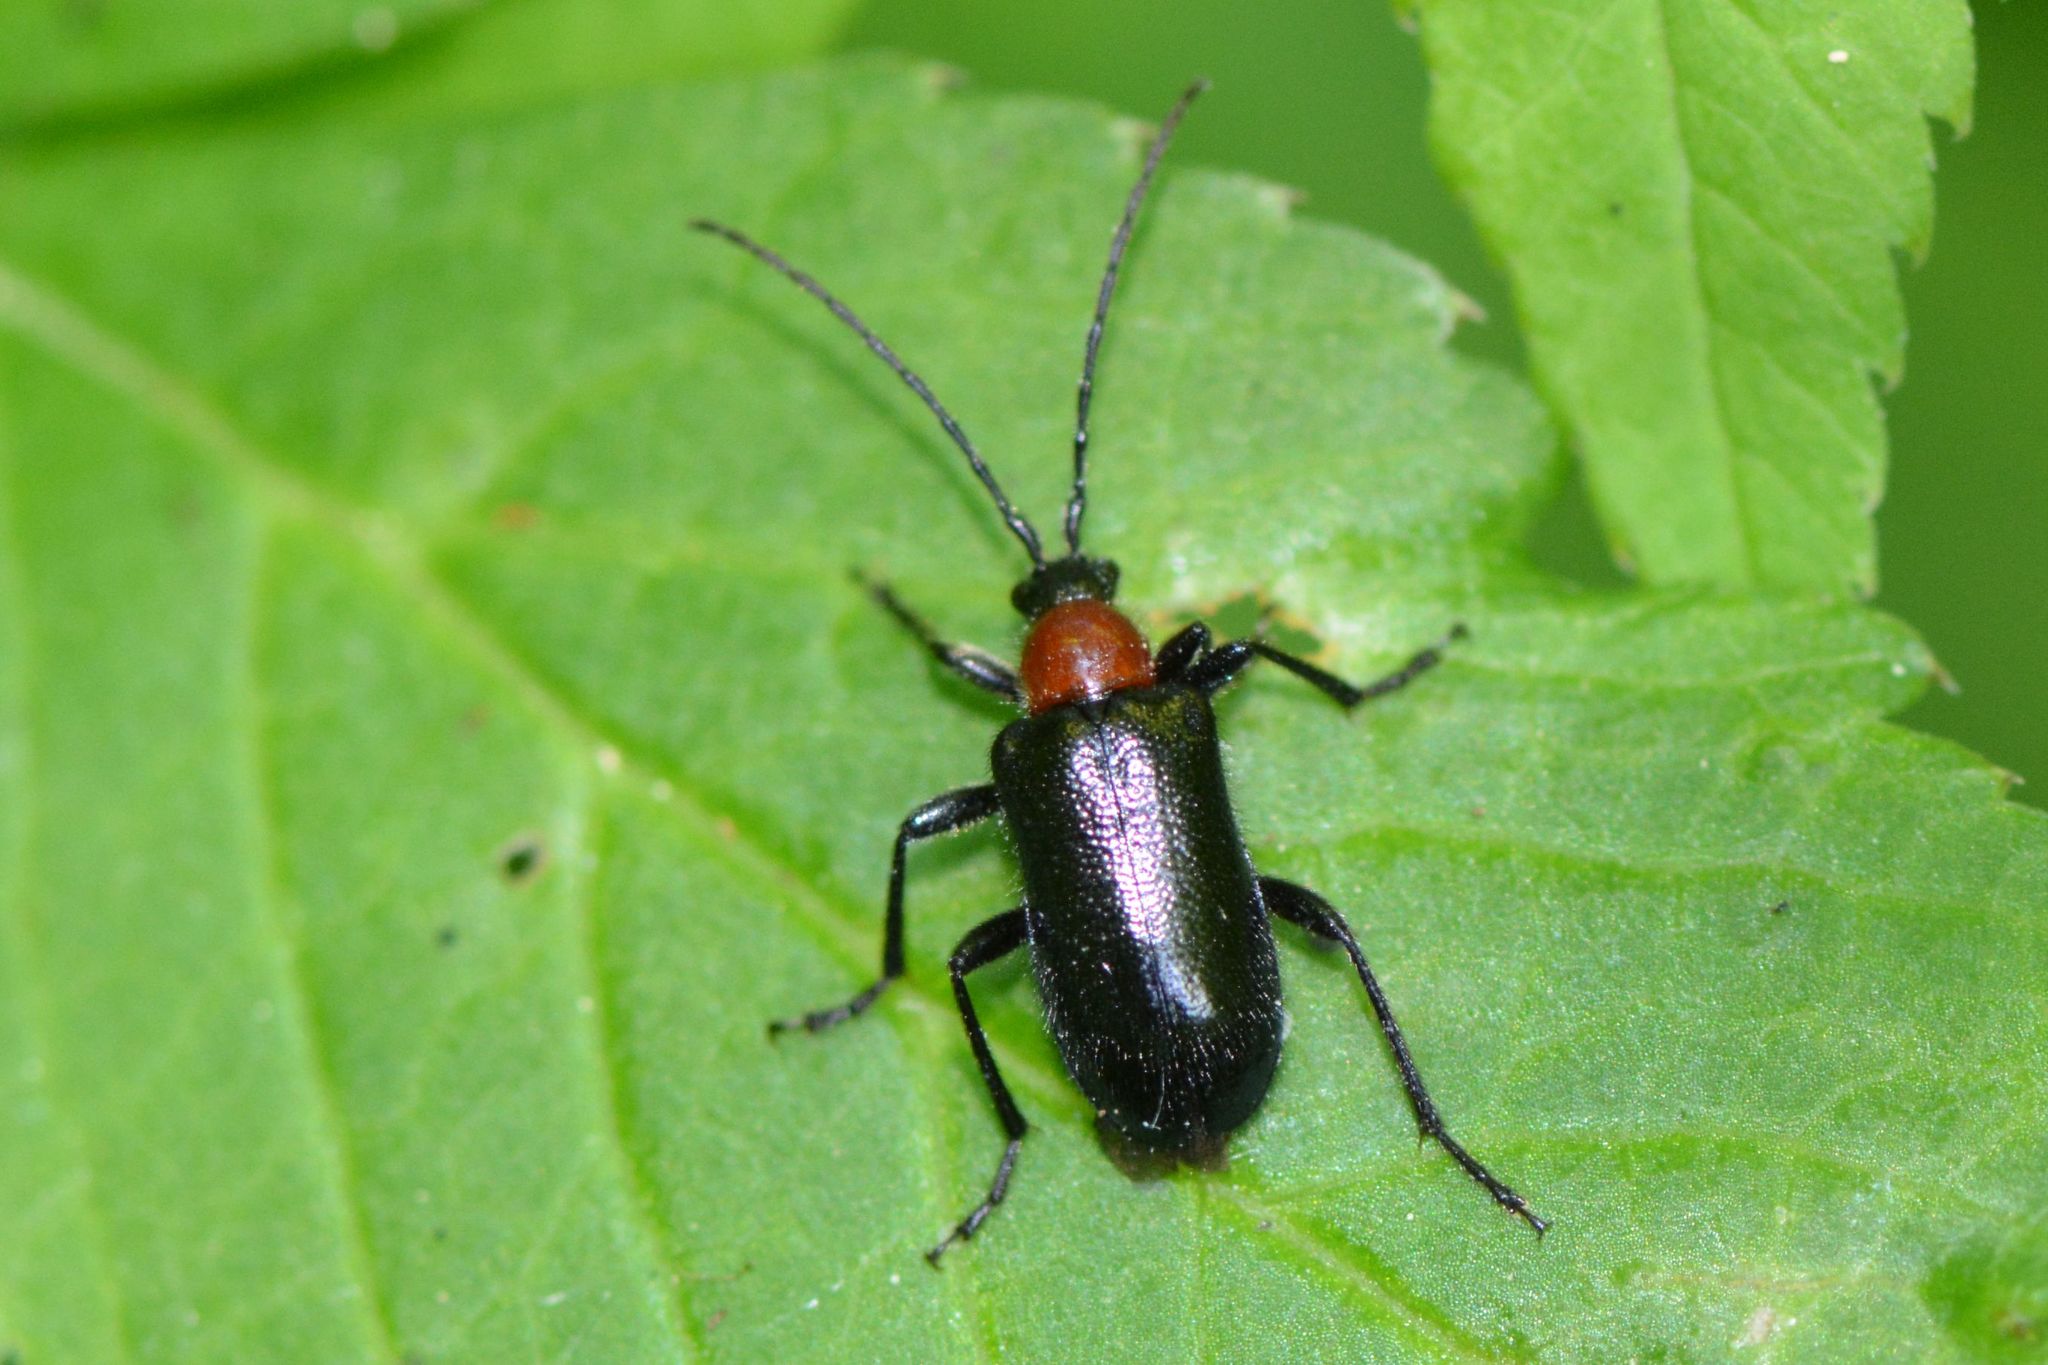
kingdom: Animalia
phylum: Arthropoda
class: Insecta
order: Coleoptera
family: Cerambycidae
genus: Dinoptera
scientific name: Dinoptera collaris
